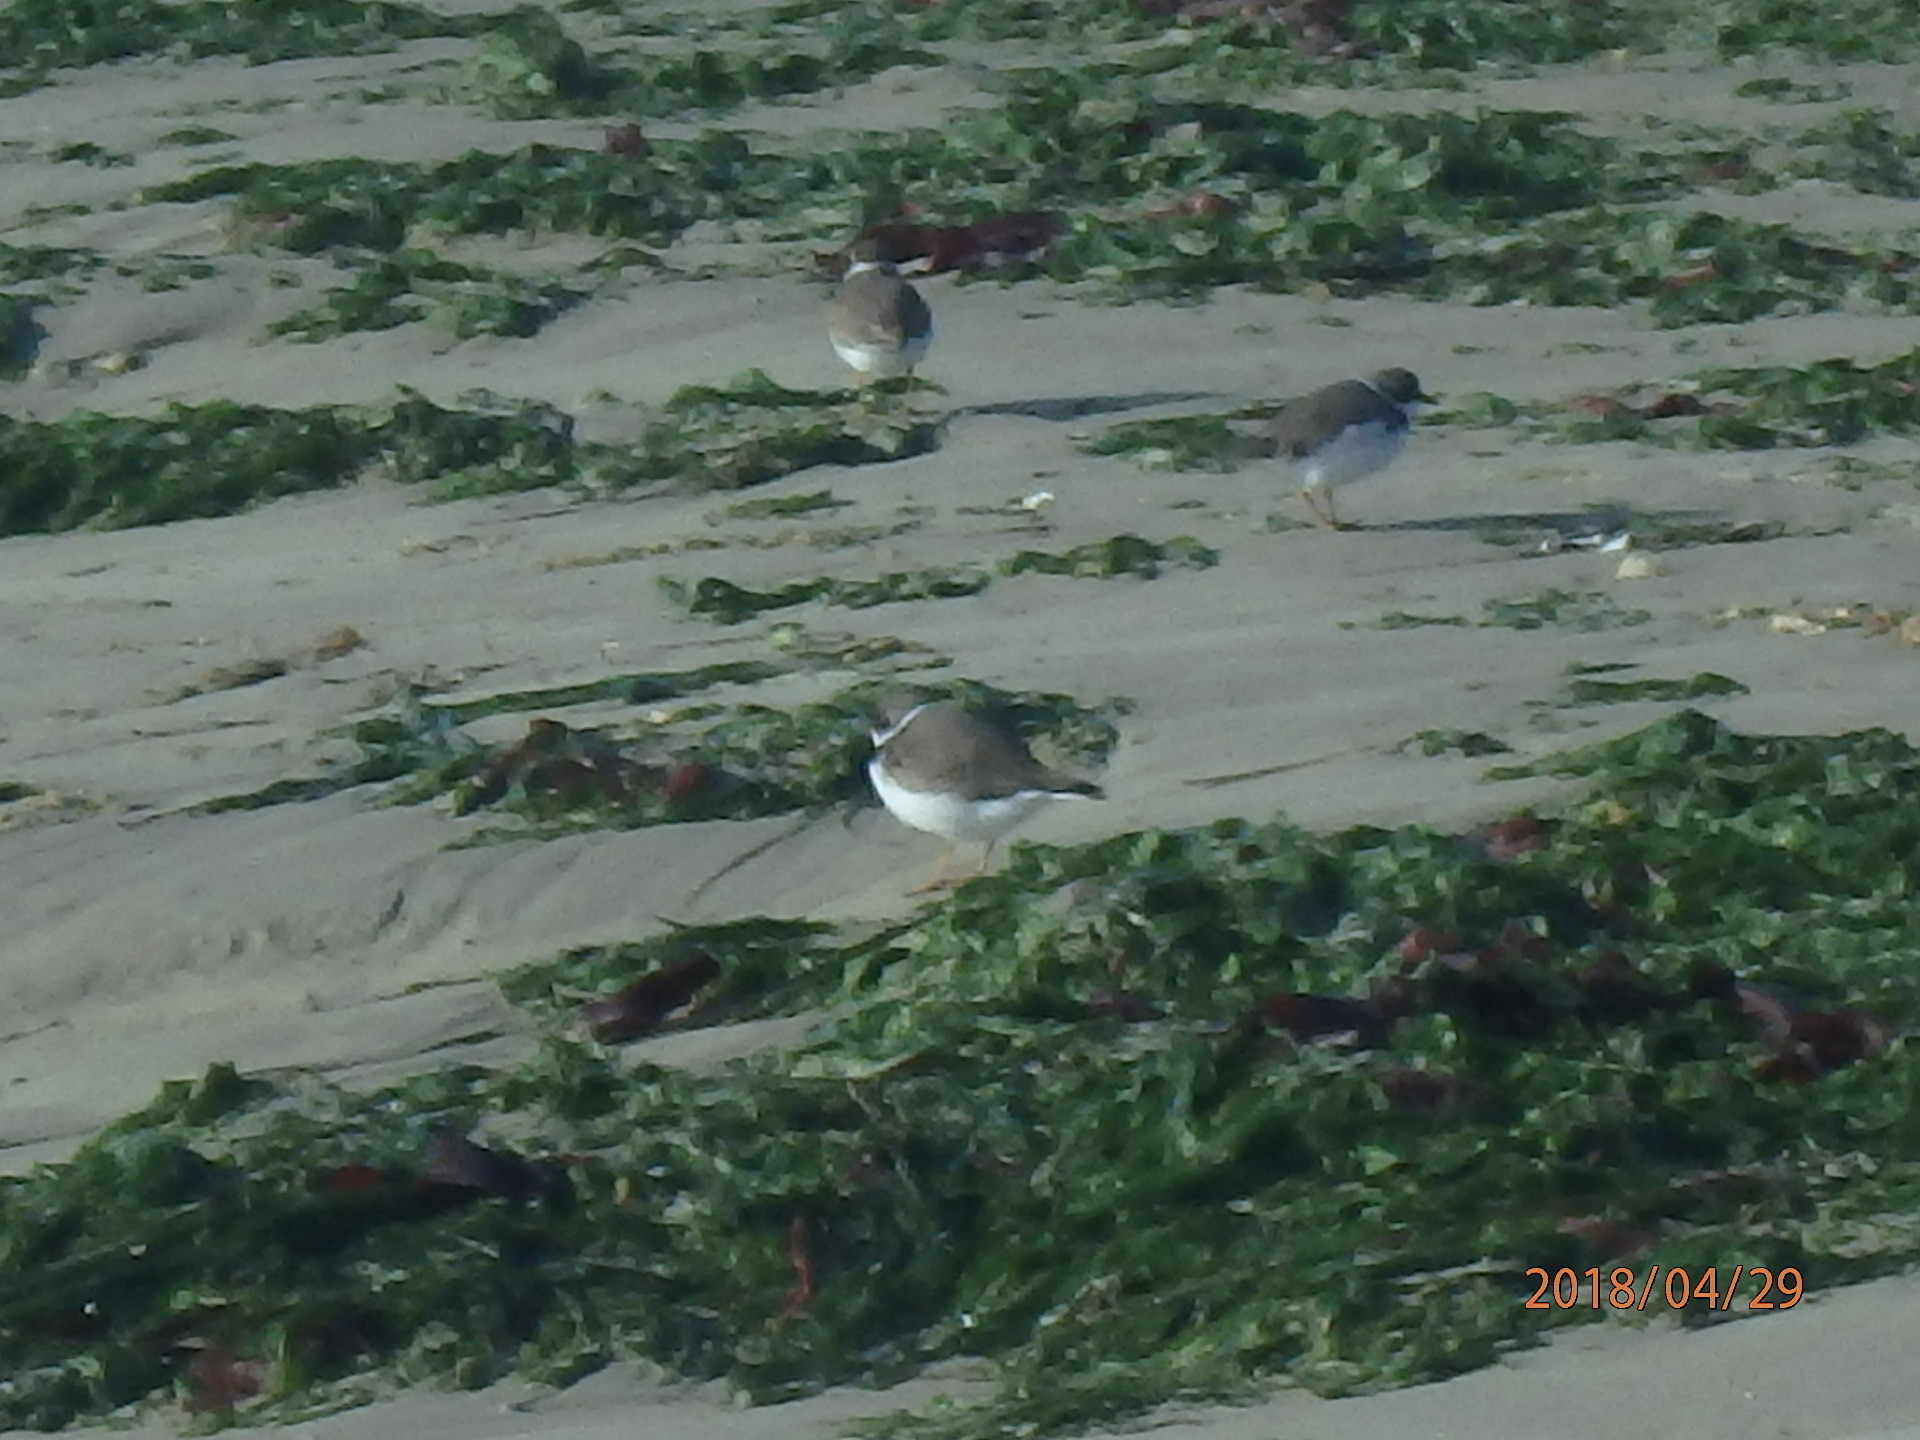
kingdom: Animalia
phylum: Chordata
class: Aves
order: Charadriiformes
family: Charadriidae
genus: Charadrius
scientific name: Charadrius semipalmatus
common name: Semipalmated plover
